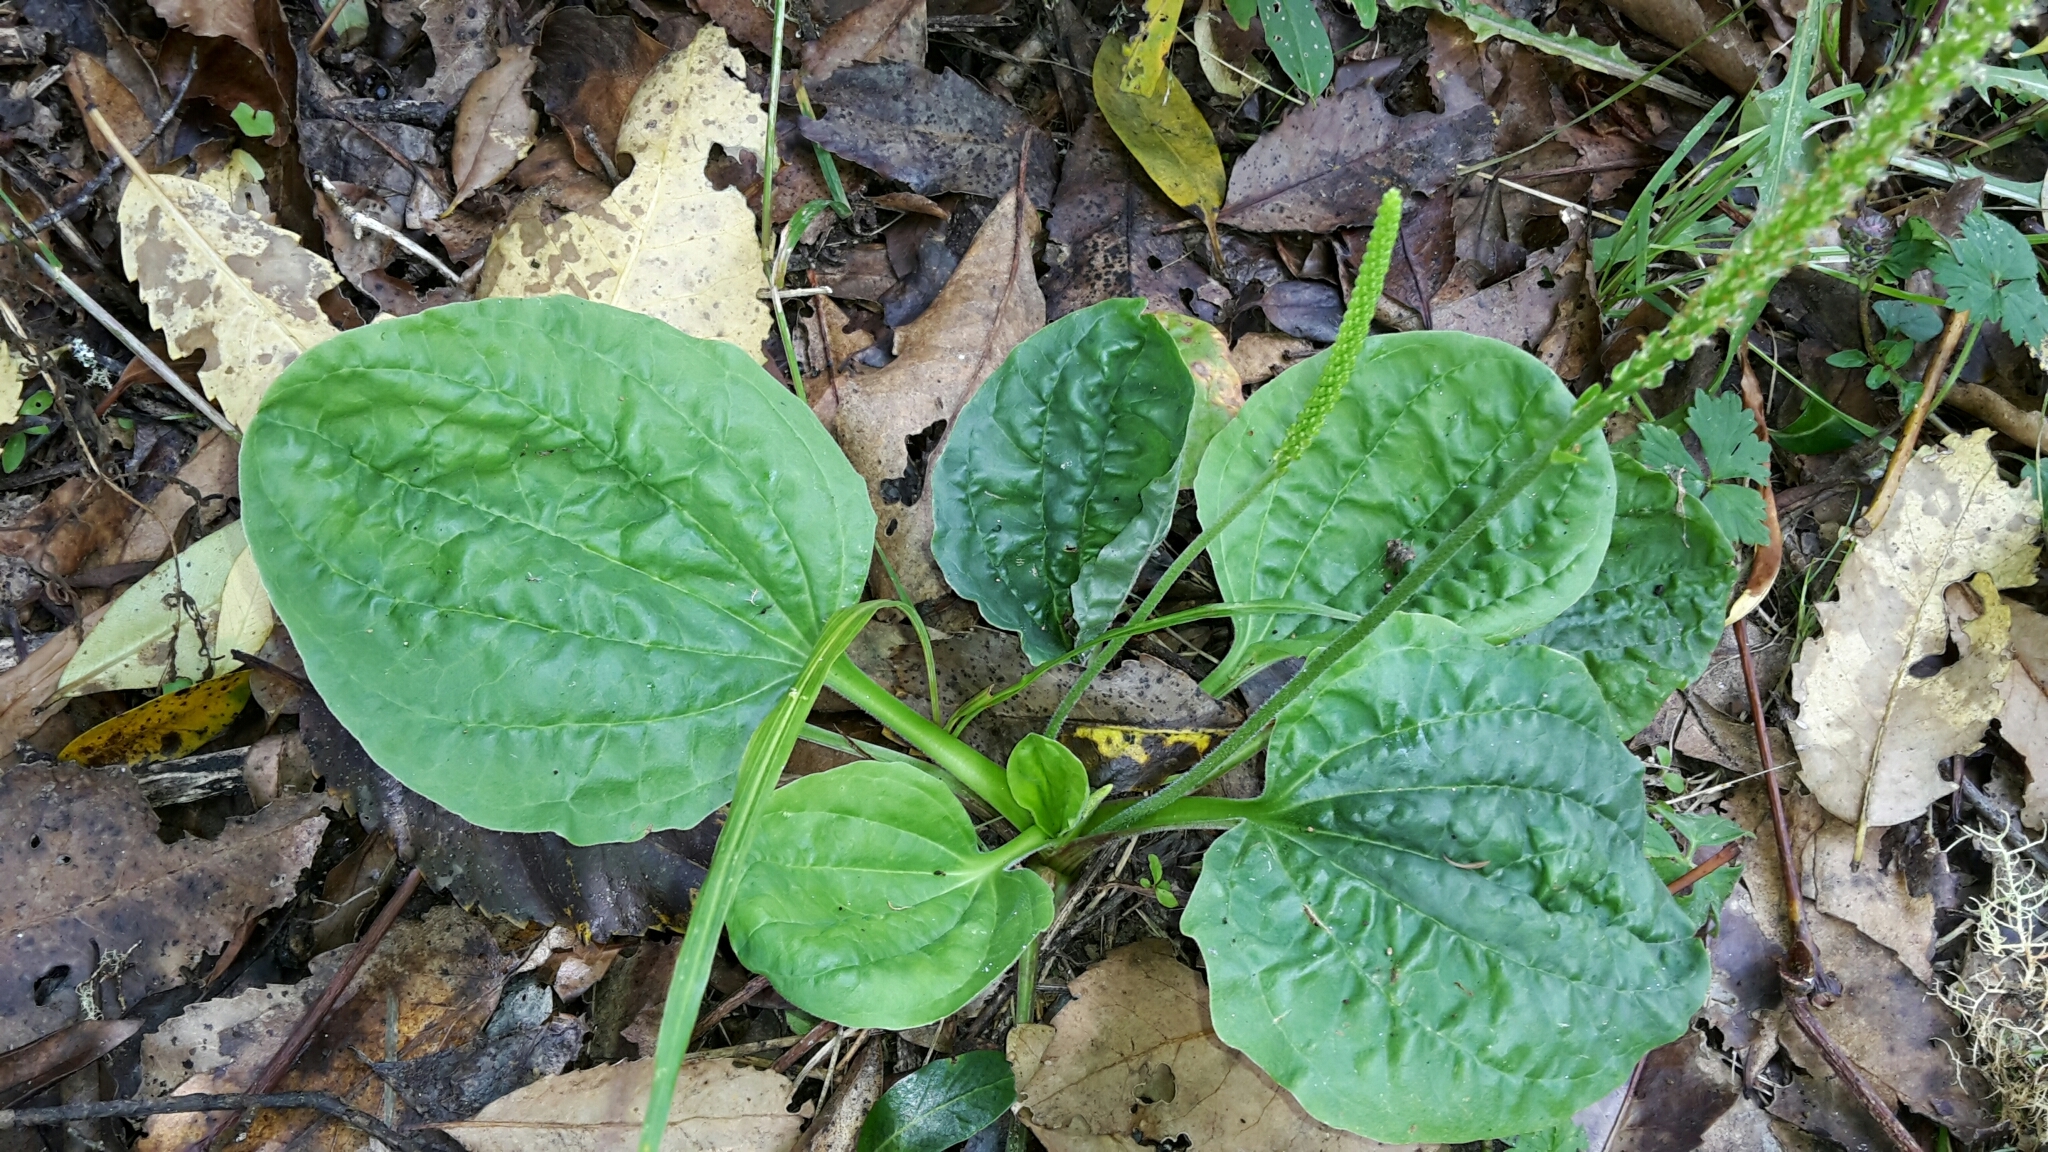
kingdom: Plantae
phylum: Tracheophyta
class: Magnoliopsida
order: Lamiales
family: Plantaginaceae
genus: Plantago
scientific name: Plantago major
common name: Common plantain
